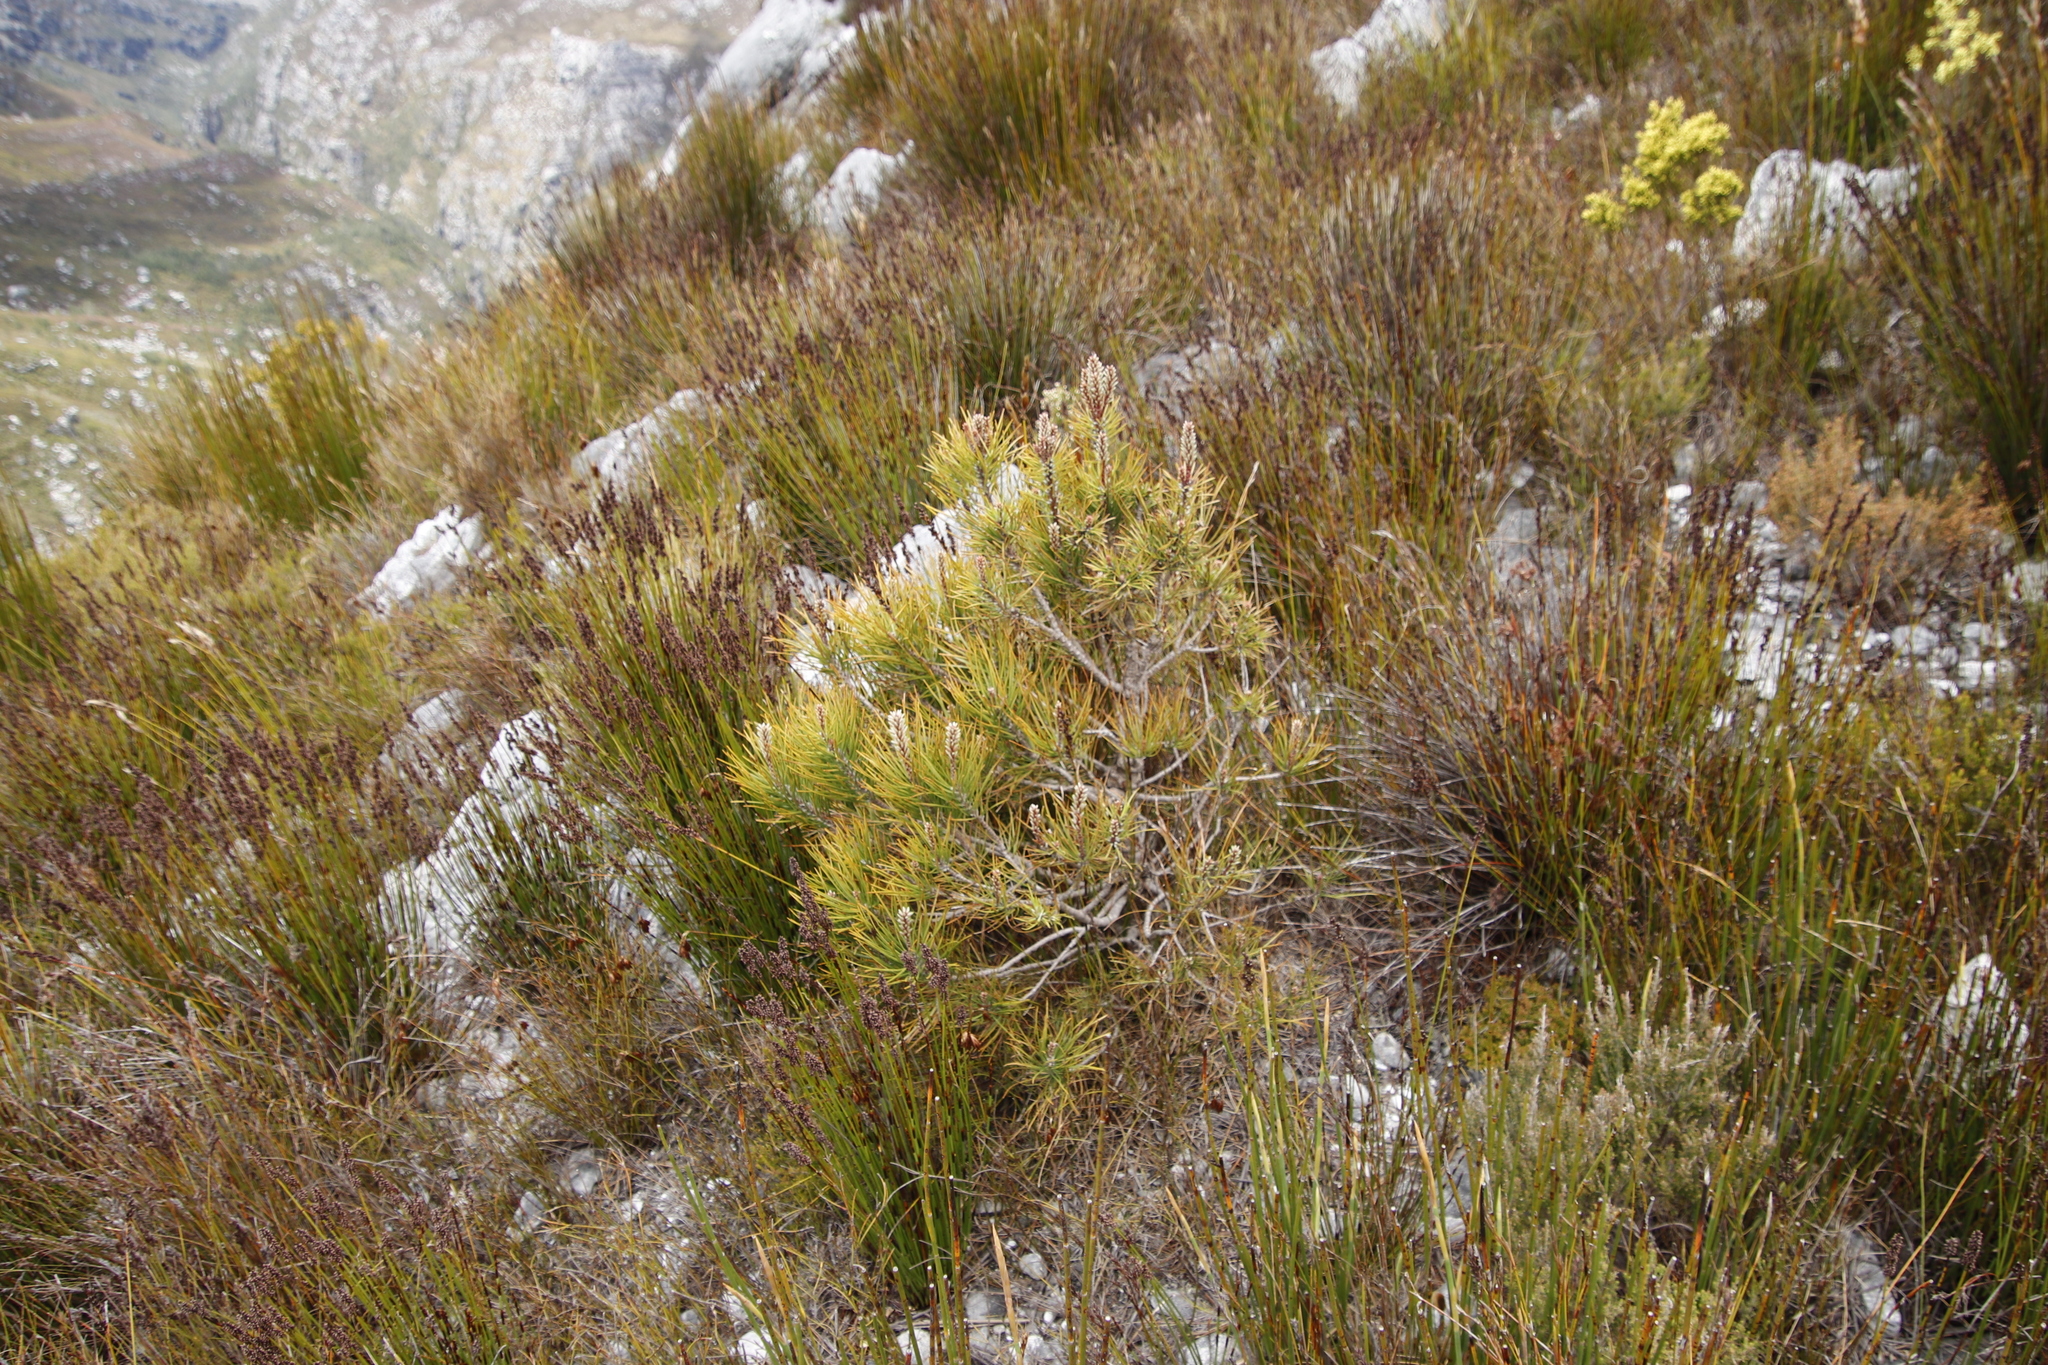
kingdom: Plantae
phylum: Tracheophyta
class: Pinopsida
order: Pinales
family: Pinaceae
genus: Pinus
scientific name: Pinus pinaster
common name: Maritime pine
